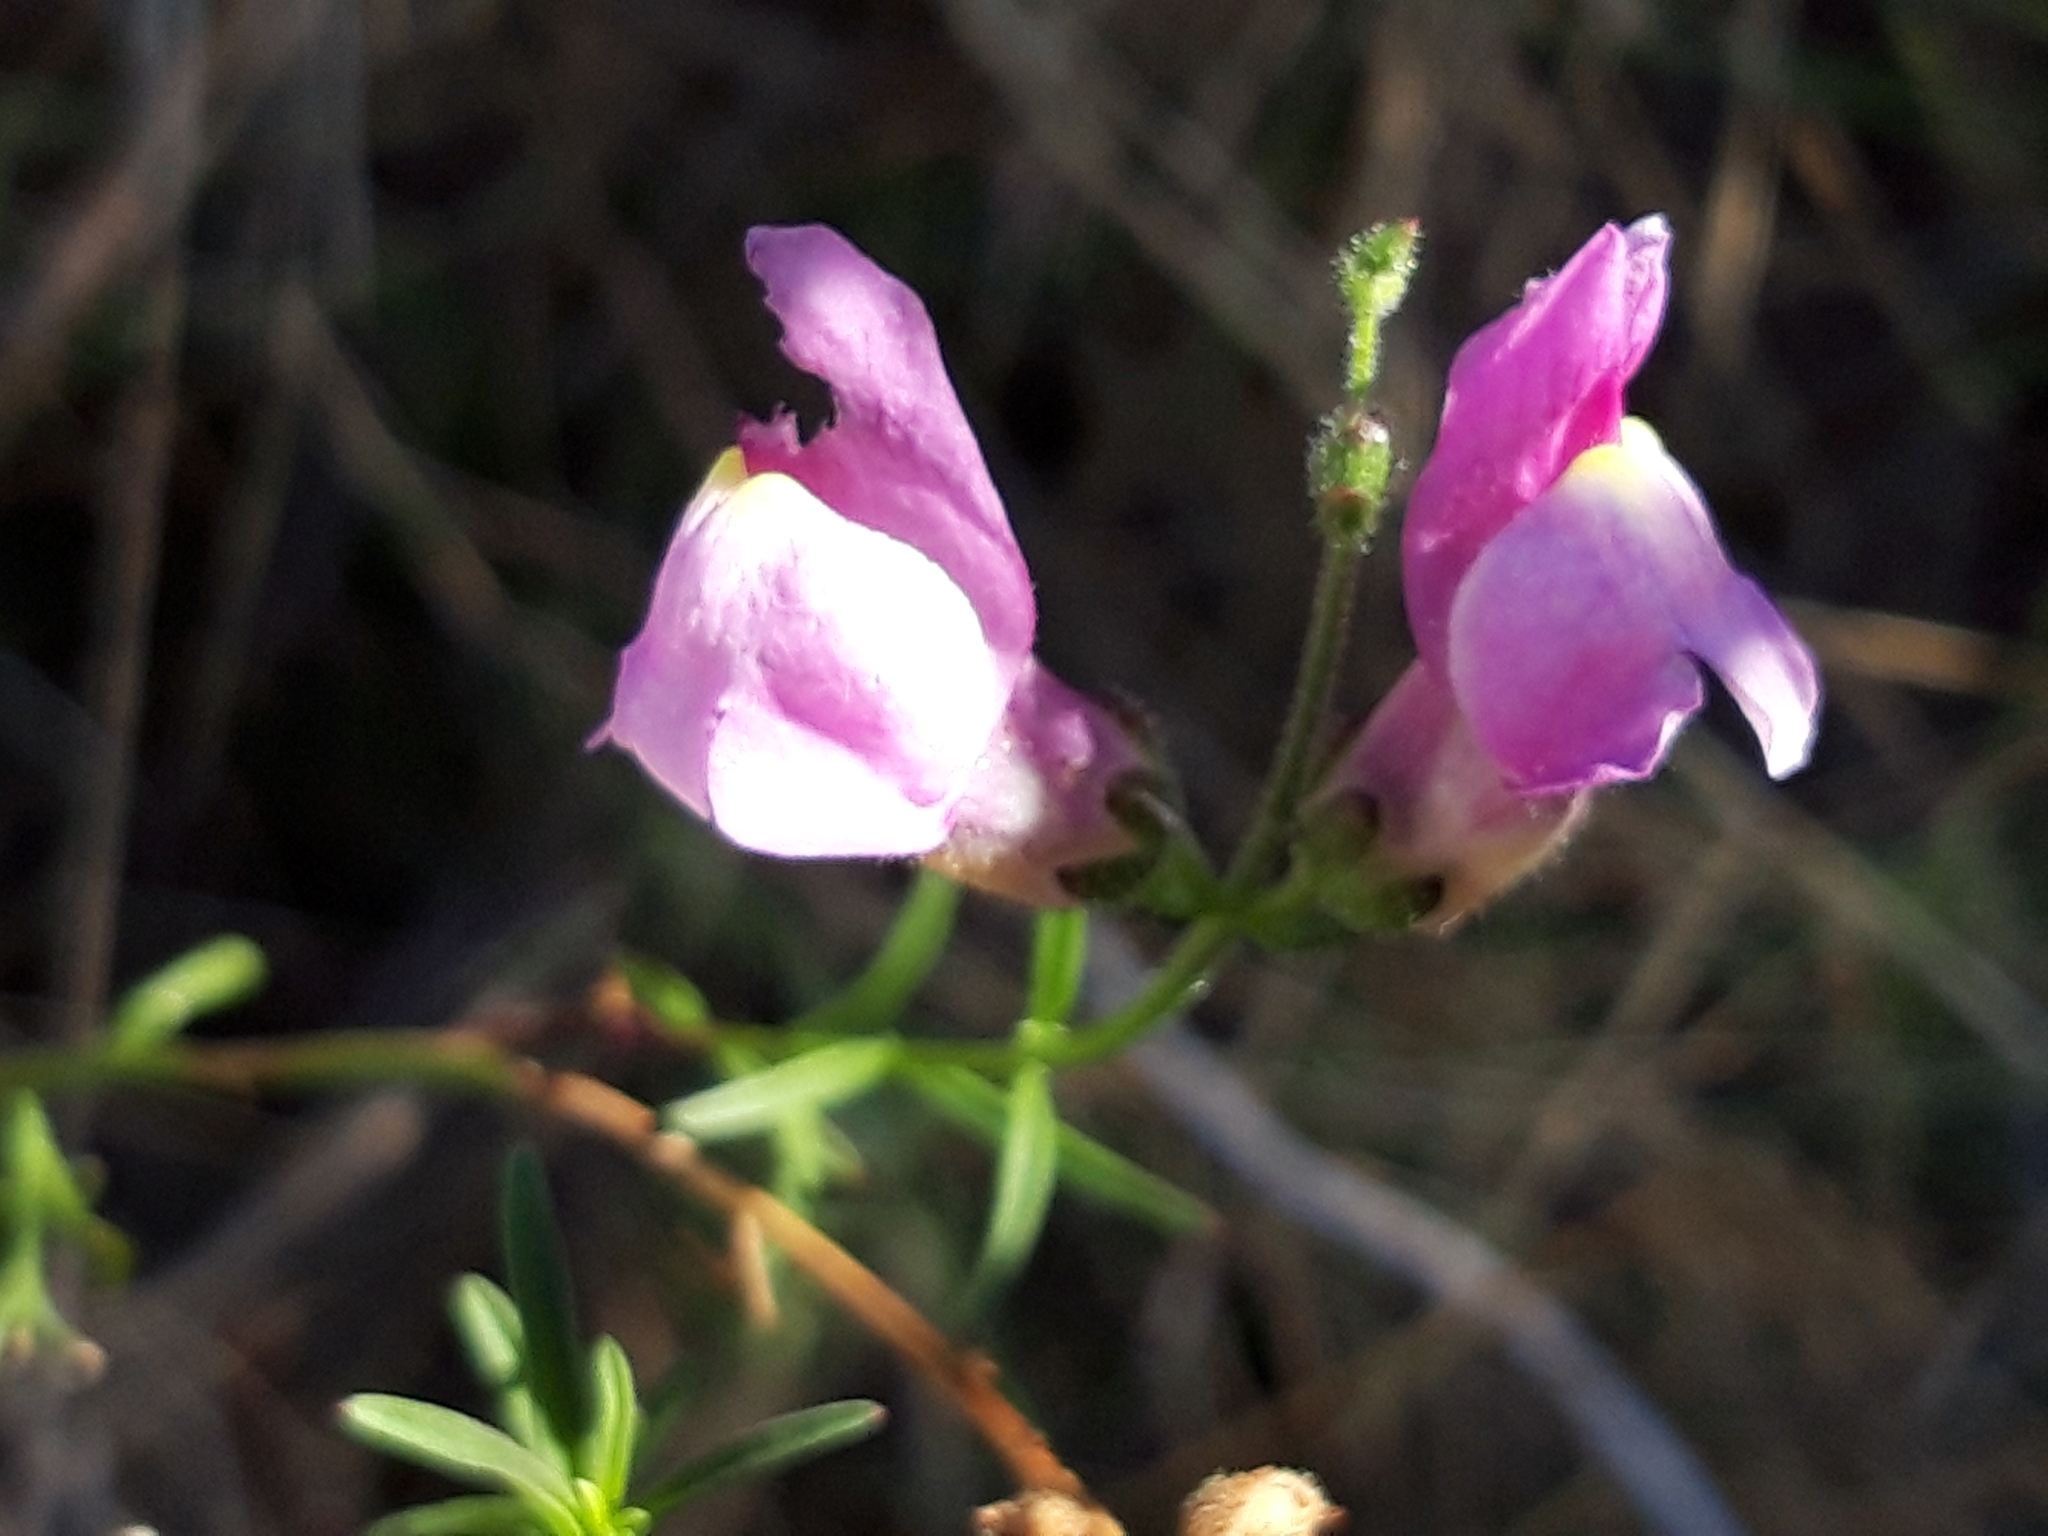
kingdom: Plantae
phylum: Tracheophyta
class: Magnoliopsida
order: Lamiales
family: Plantaginaceae
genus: Antirrhinum
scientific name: Antirrhinum litigiosum
